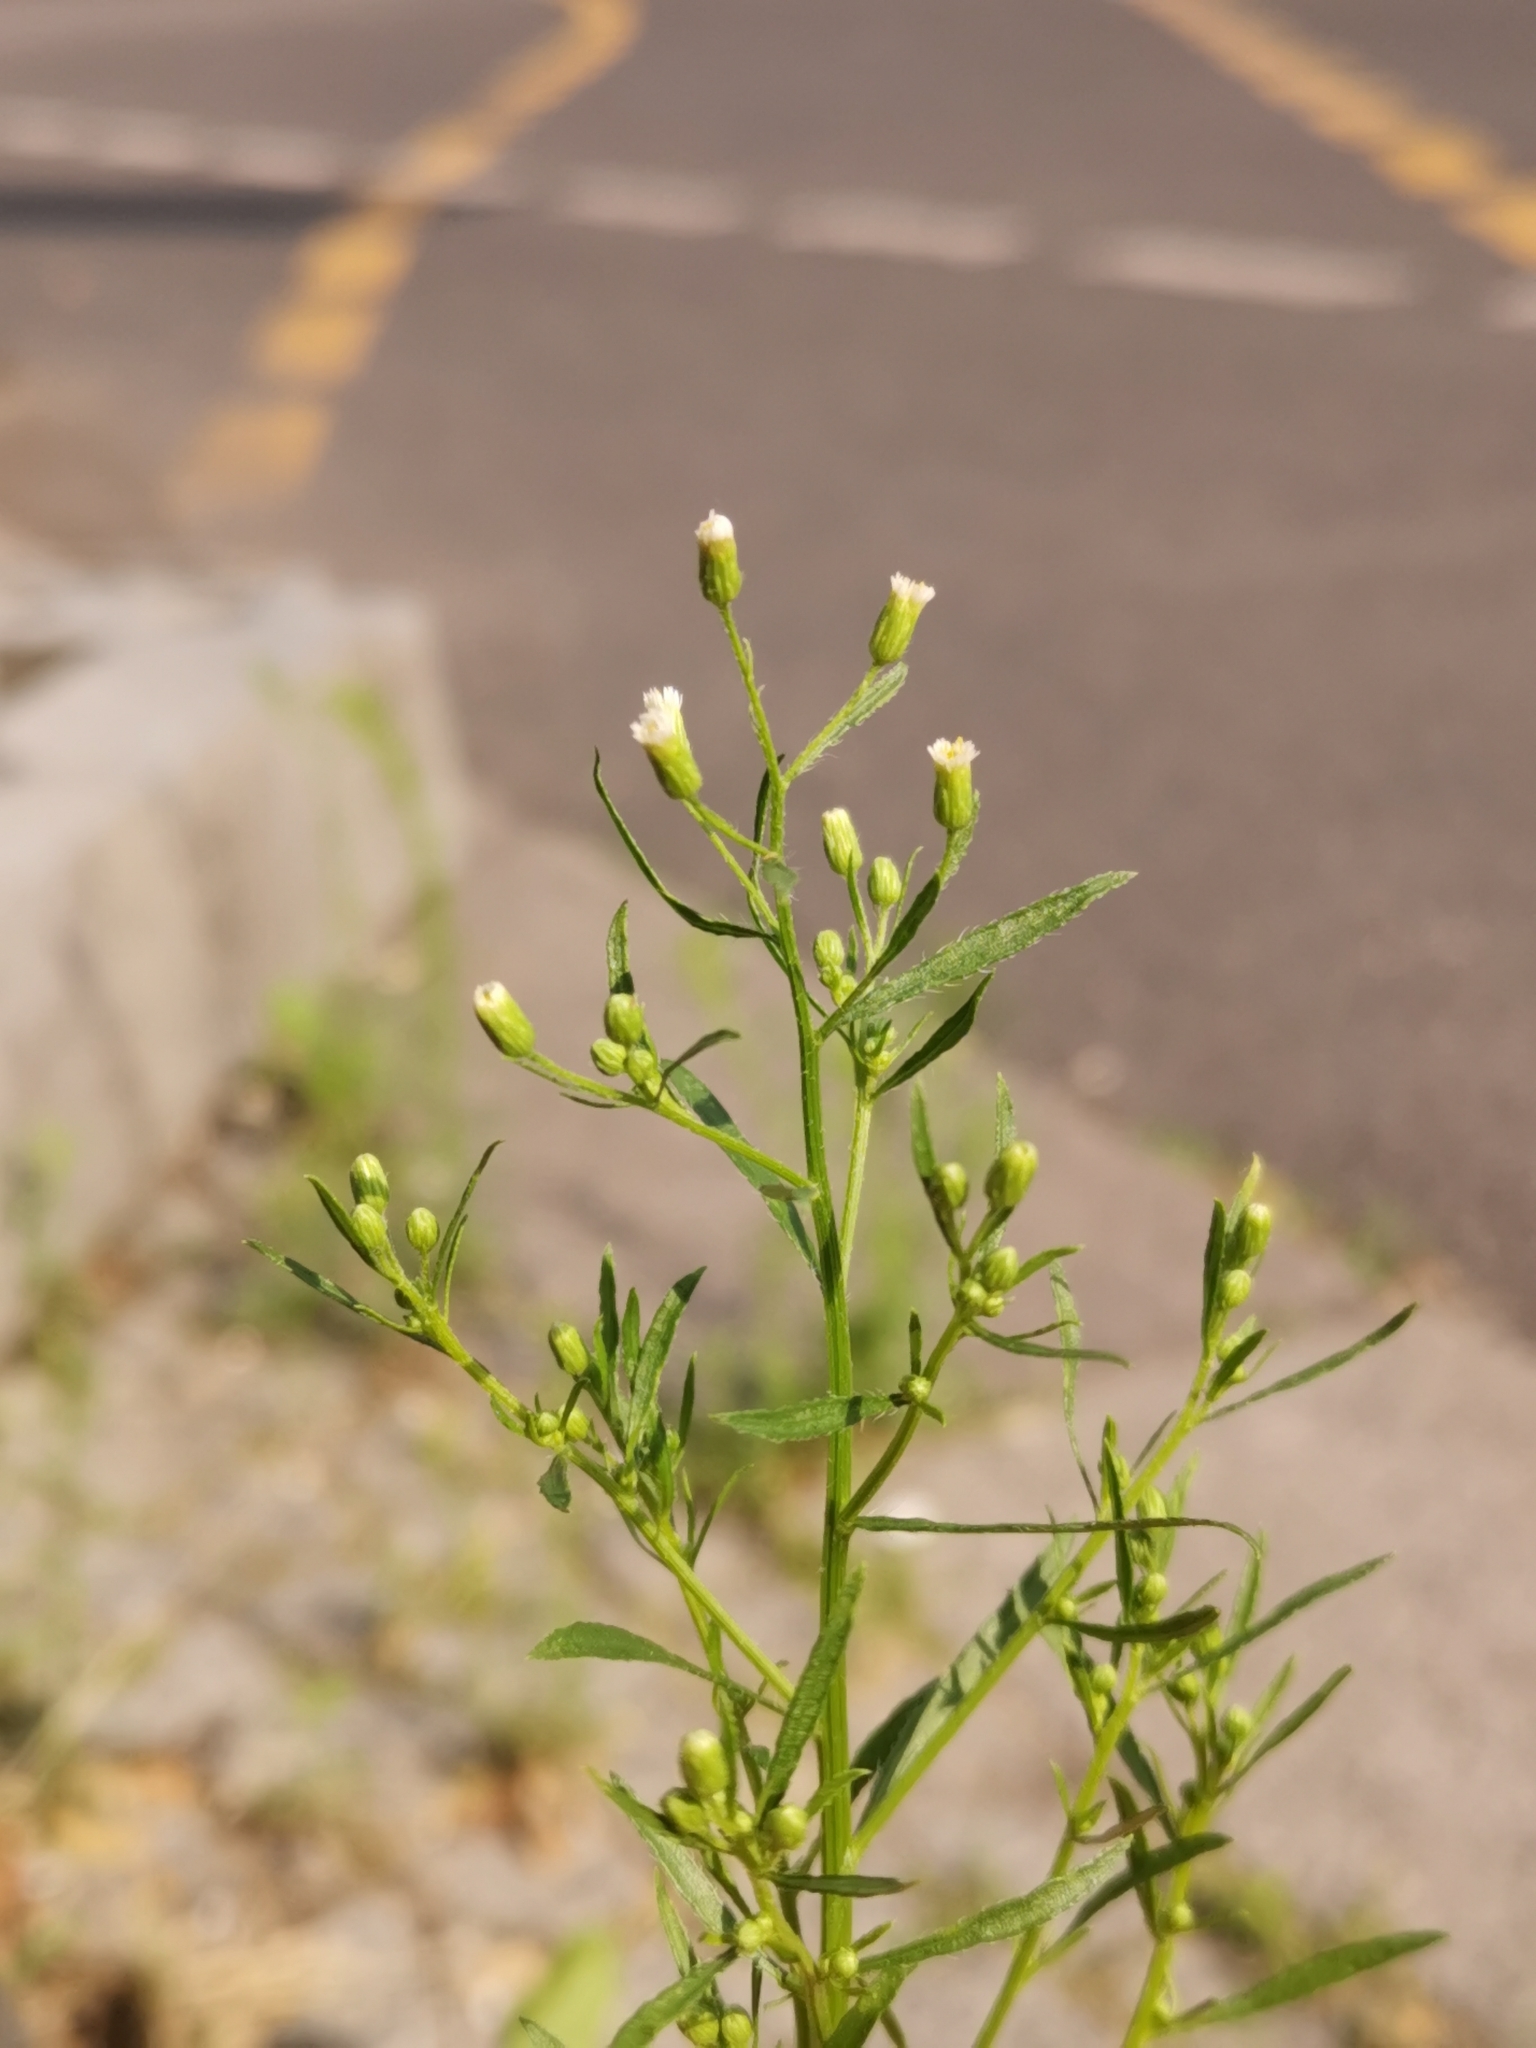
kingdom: Plantae
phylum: Tracheophyta
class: Magnoliopsida
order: Asterales
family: Asteraceae
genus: Erigeron
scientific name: Erigeron canadensis
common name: Canadian fleabane
